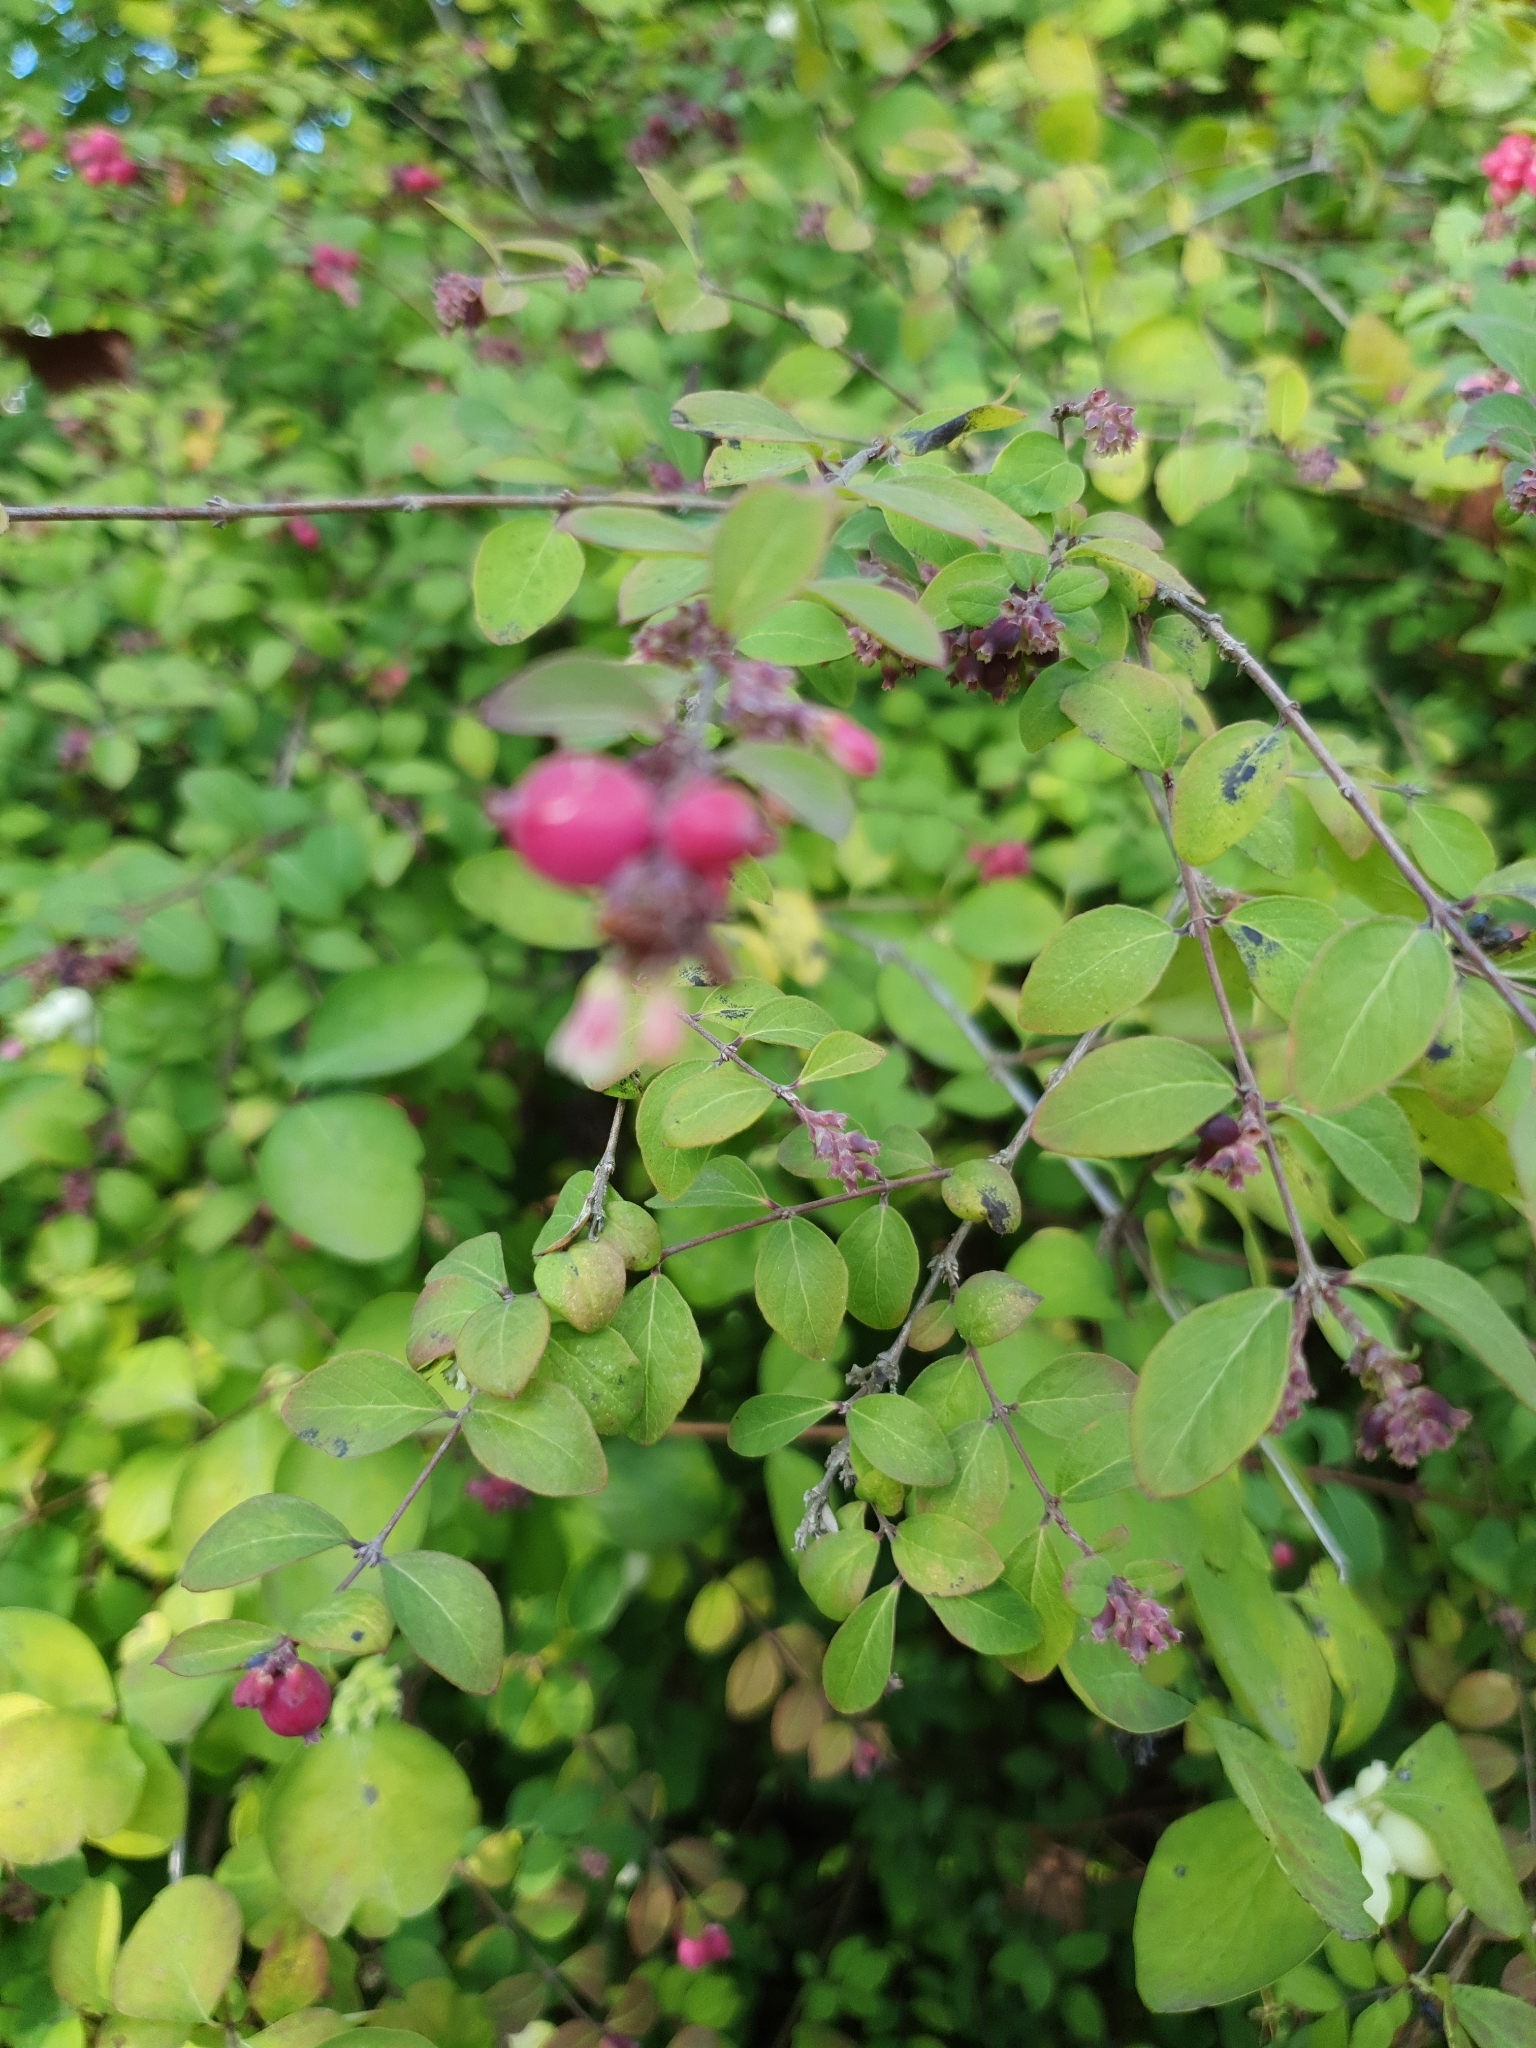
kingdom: Plantae
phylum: Tracheophyta
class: Magnoliopsida
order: Dipsacales
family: Caprifoliaceae
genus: Symphoricarpos
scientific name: Symphoricarpos orbiculatus
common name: Coralberry
